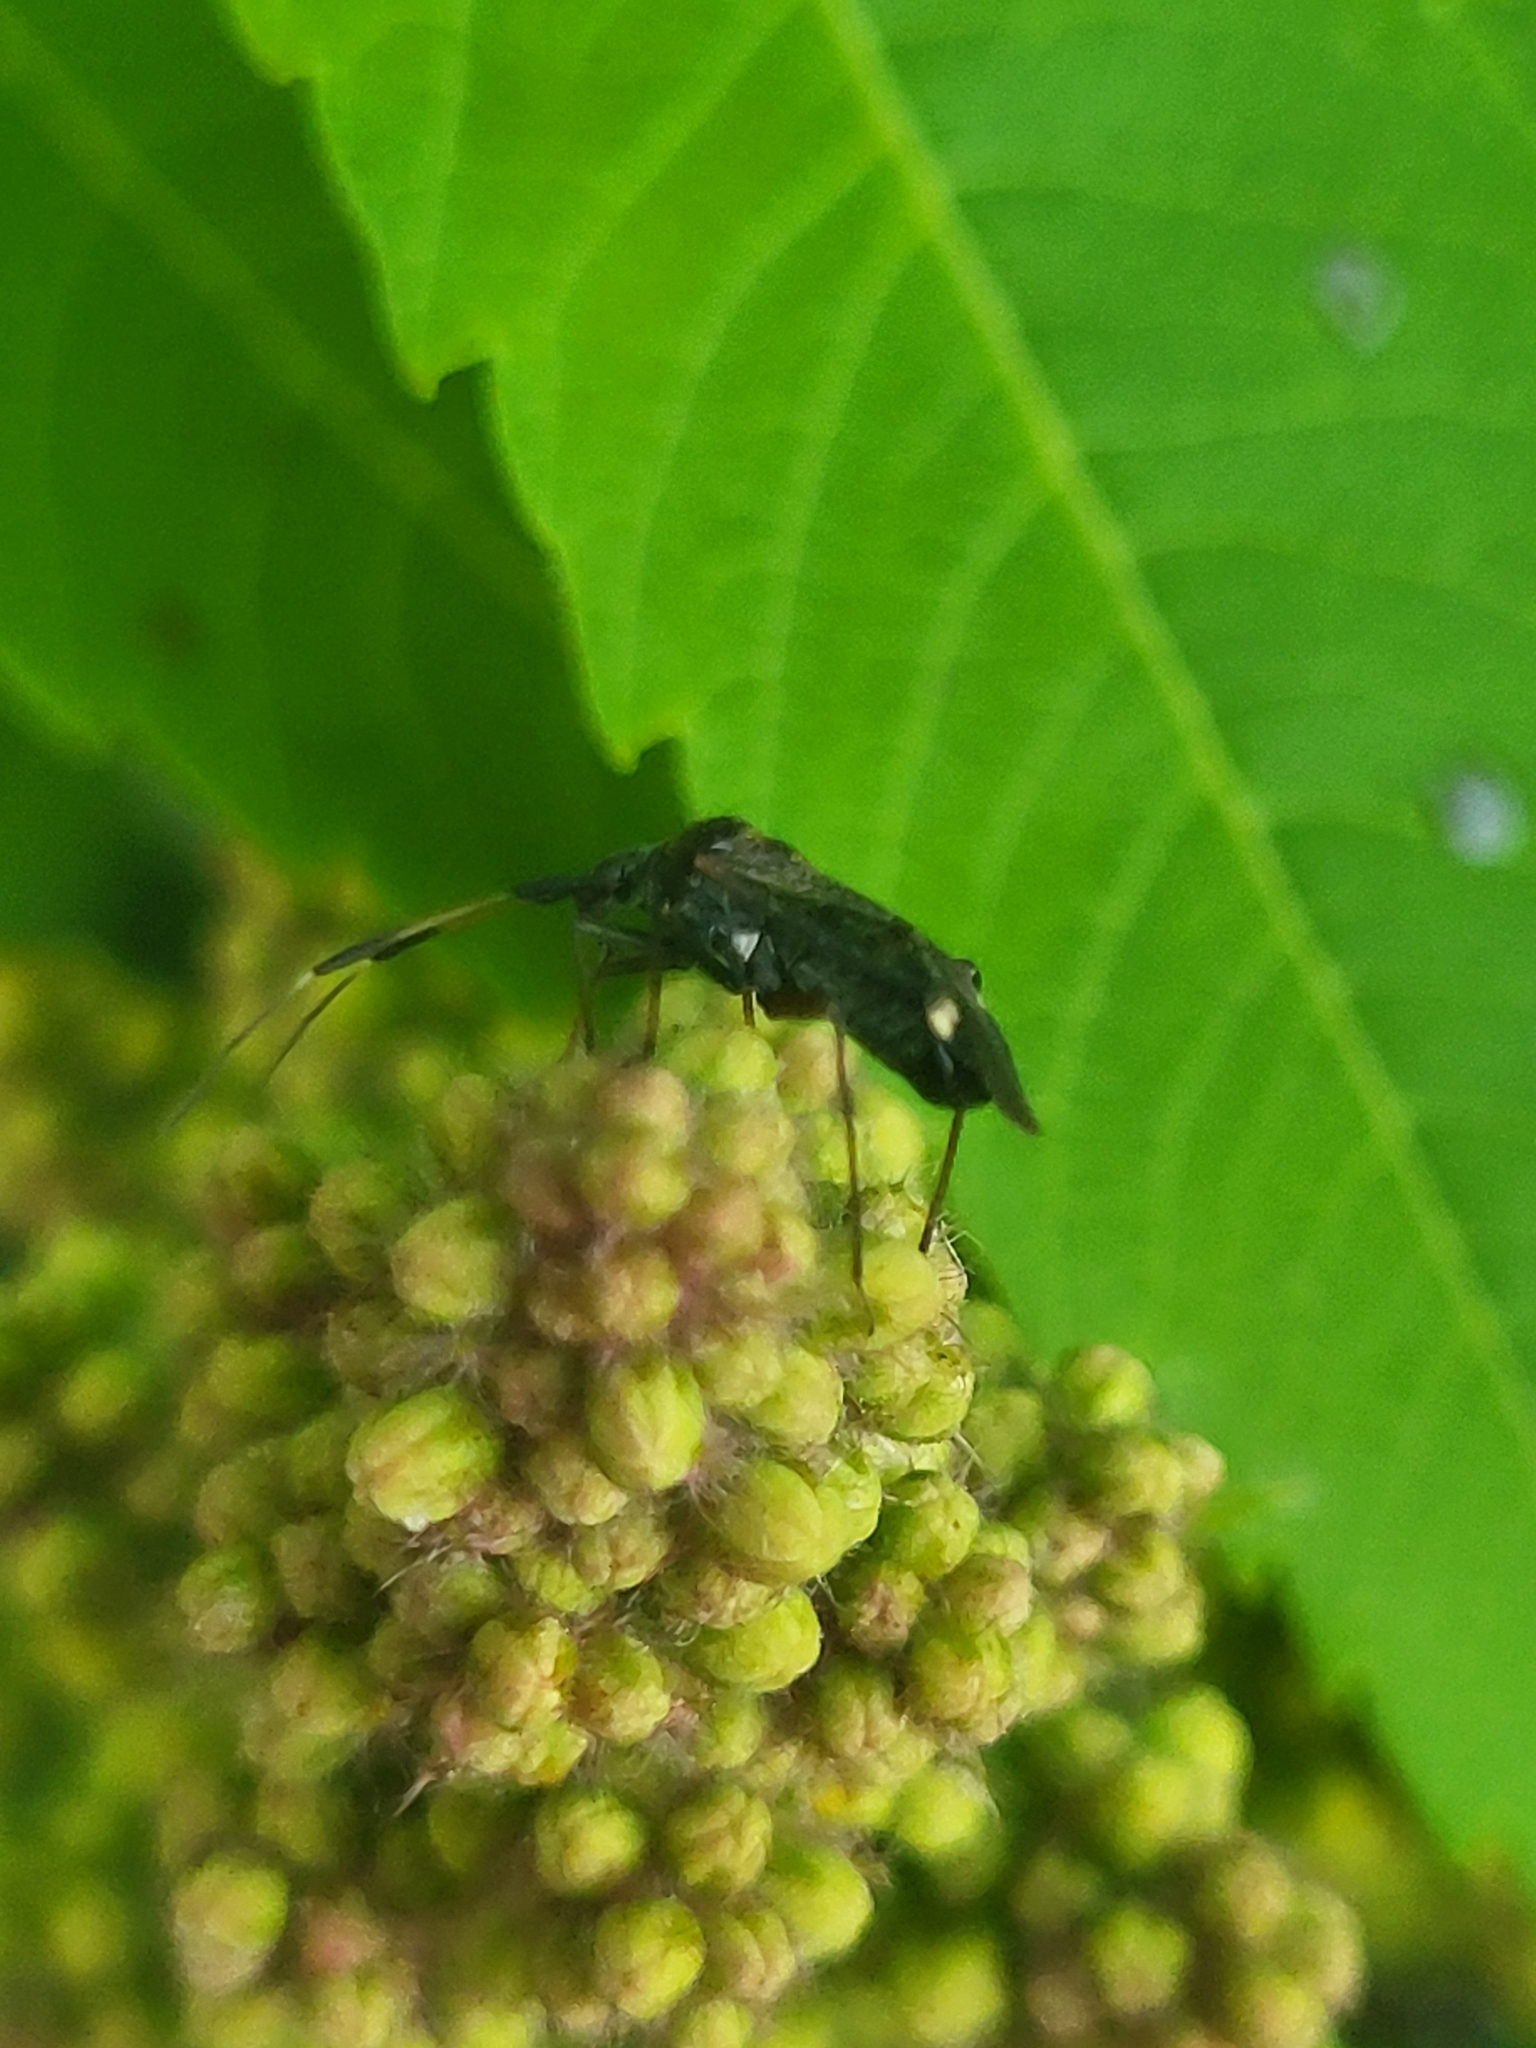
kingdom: Animalia
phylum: Arthropoda
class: Insecta
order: Hemiptera
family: Miridae
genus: Closterotomus
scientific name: Closterotomus biclavatus
